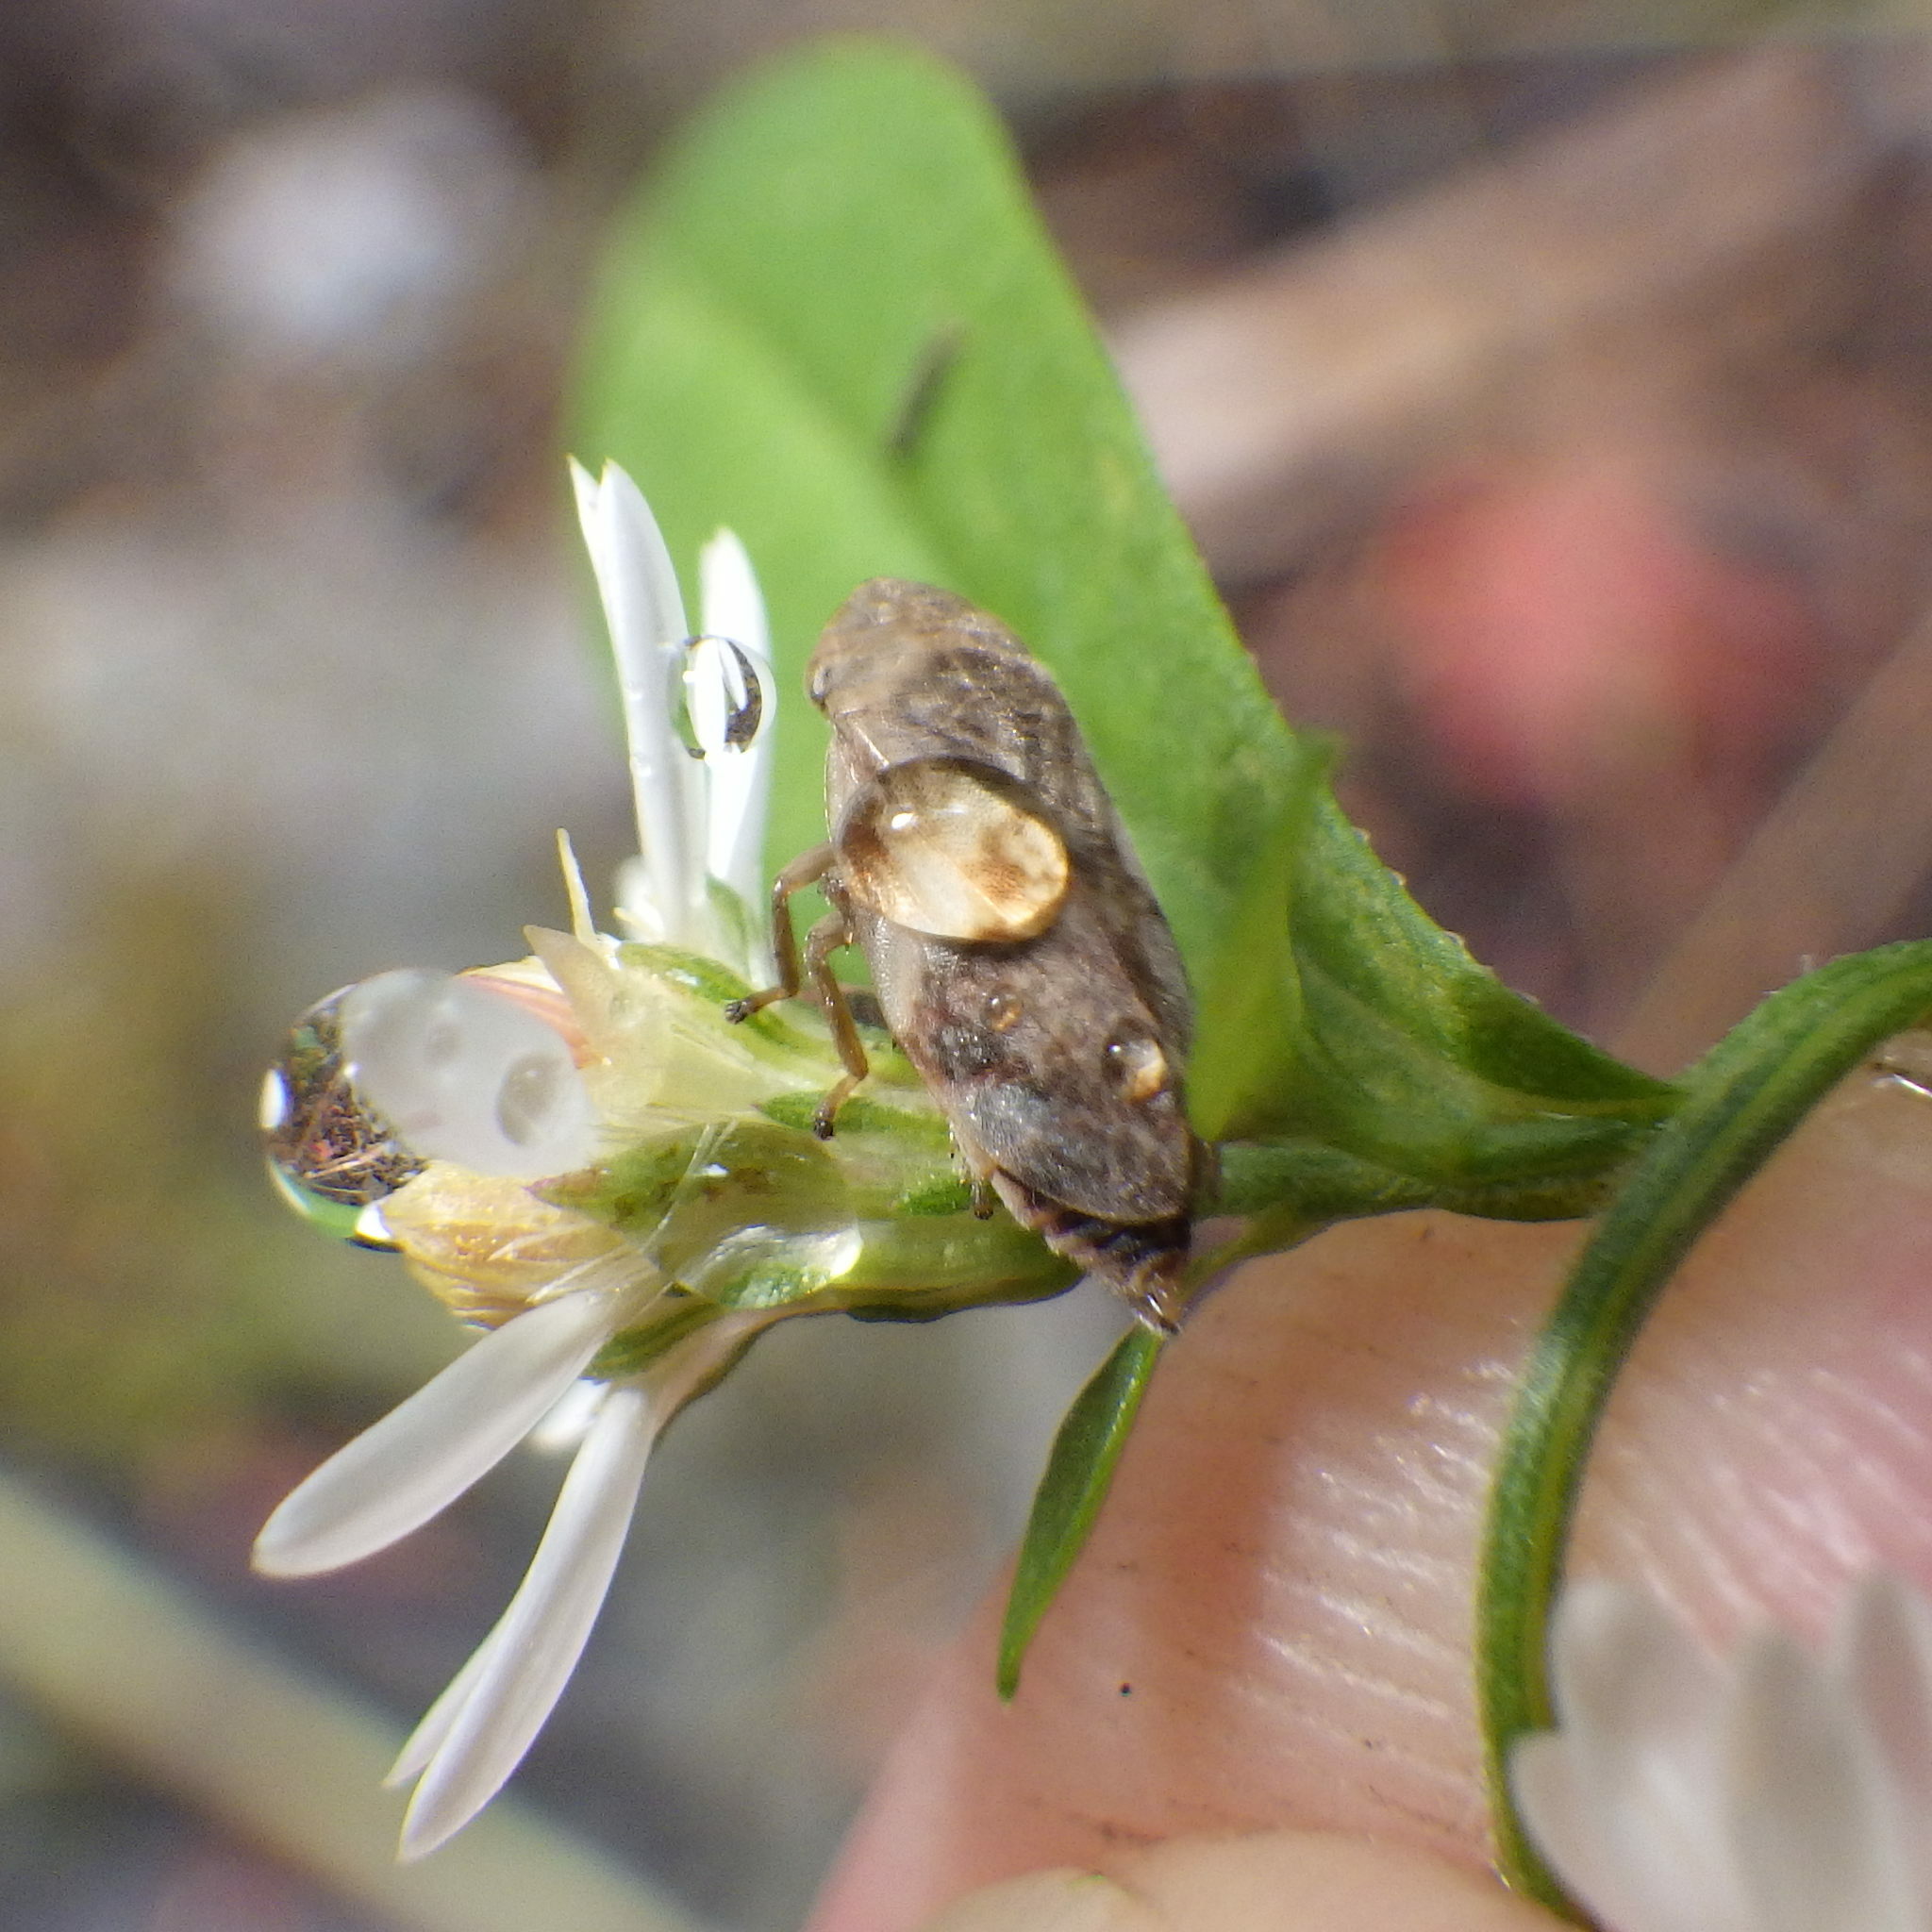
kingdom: Animalia
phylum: Arthropoda
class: Insecta
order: Hemiptera
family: Aphrophoridae
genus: Philaenus
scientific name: Philaenus spumarius
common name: Meadow spittlebug
